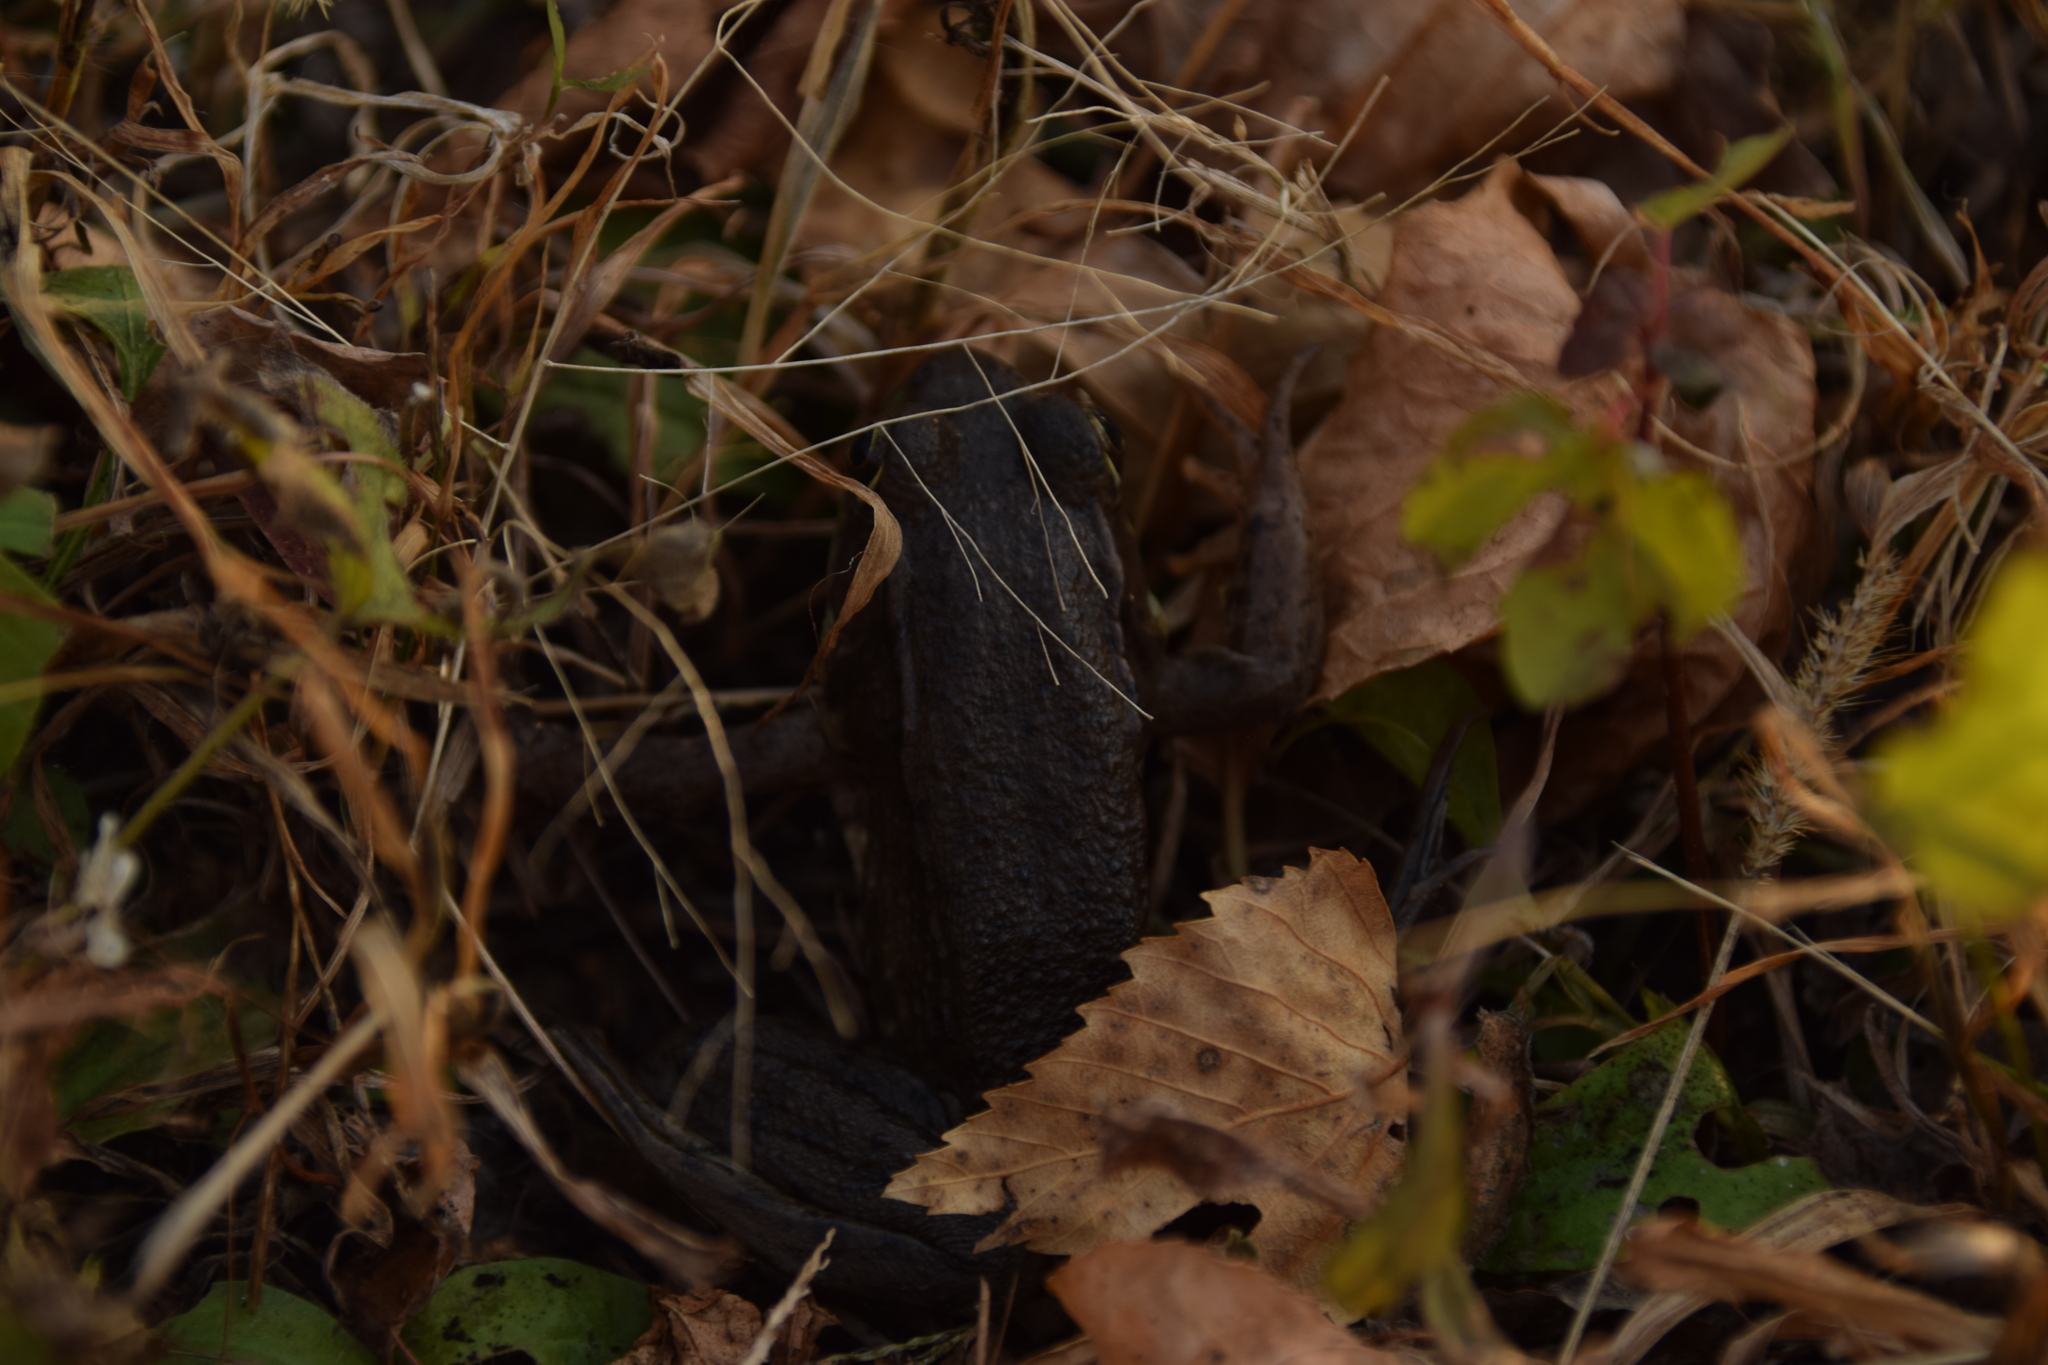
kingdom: Animalia
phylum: Chordata
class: Amphibia
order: Anura
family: Ranidae
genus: Lithobates
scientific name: Lithobates clamitans
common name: Green frog
